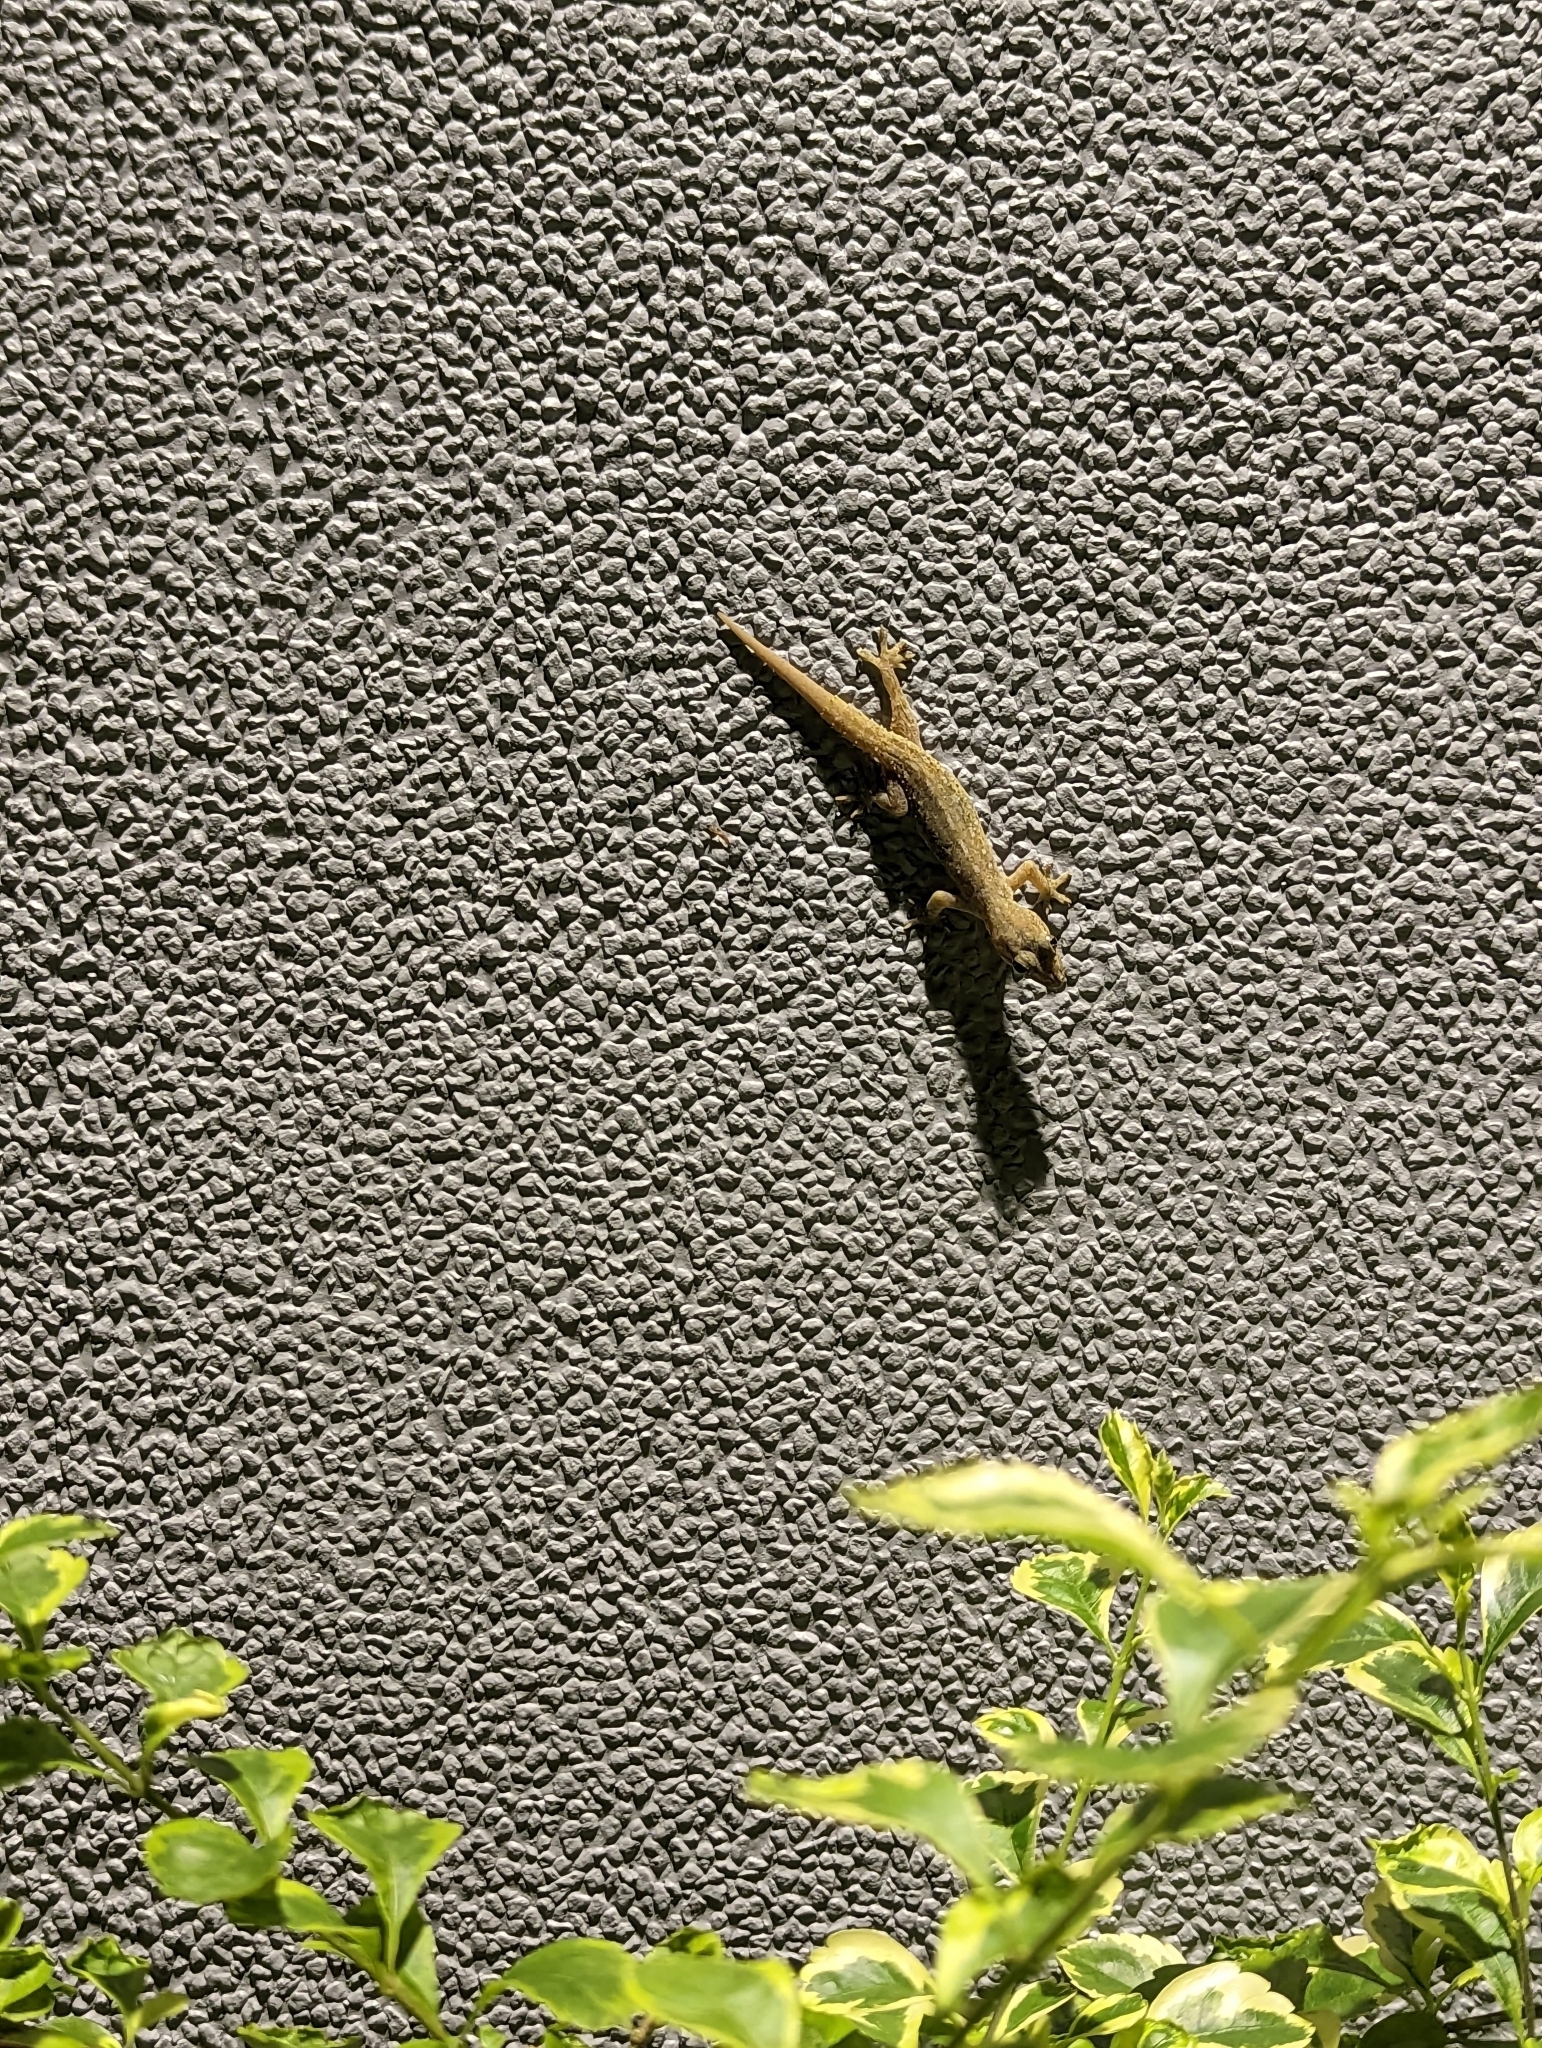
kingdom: Animalia
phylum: Chordata
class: Squamata
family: Gekkonidae
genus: Hemidactylus
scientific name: Hemidactylus frenatus
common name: Common house gecko
